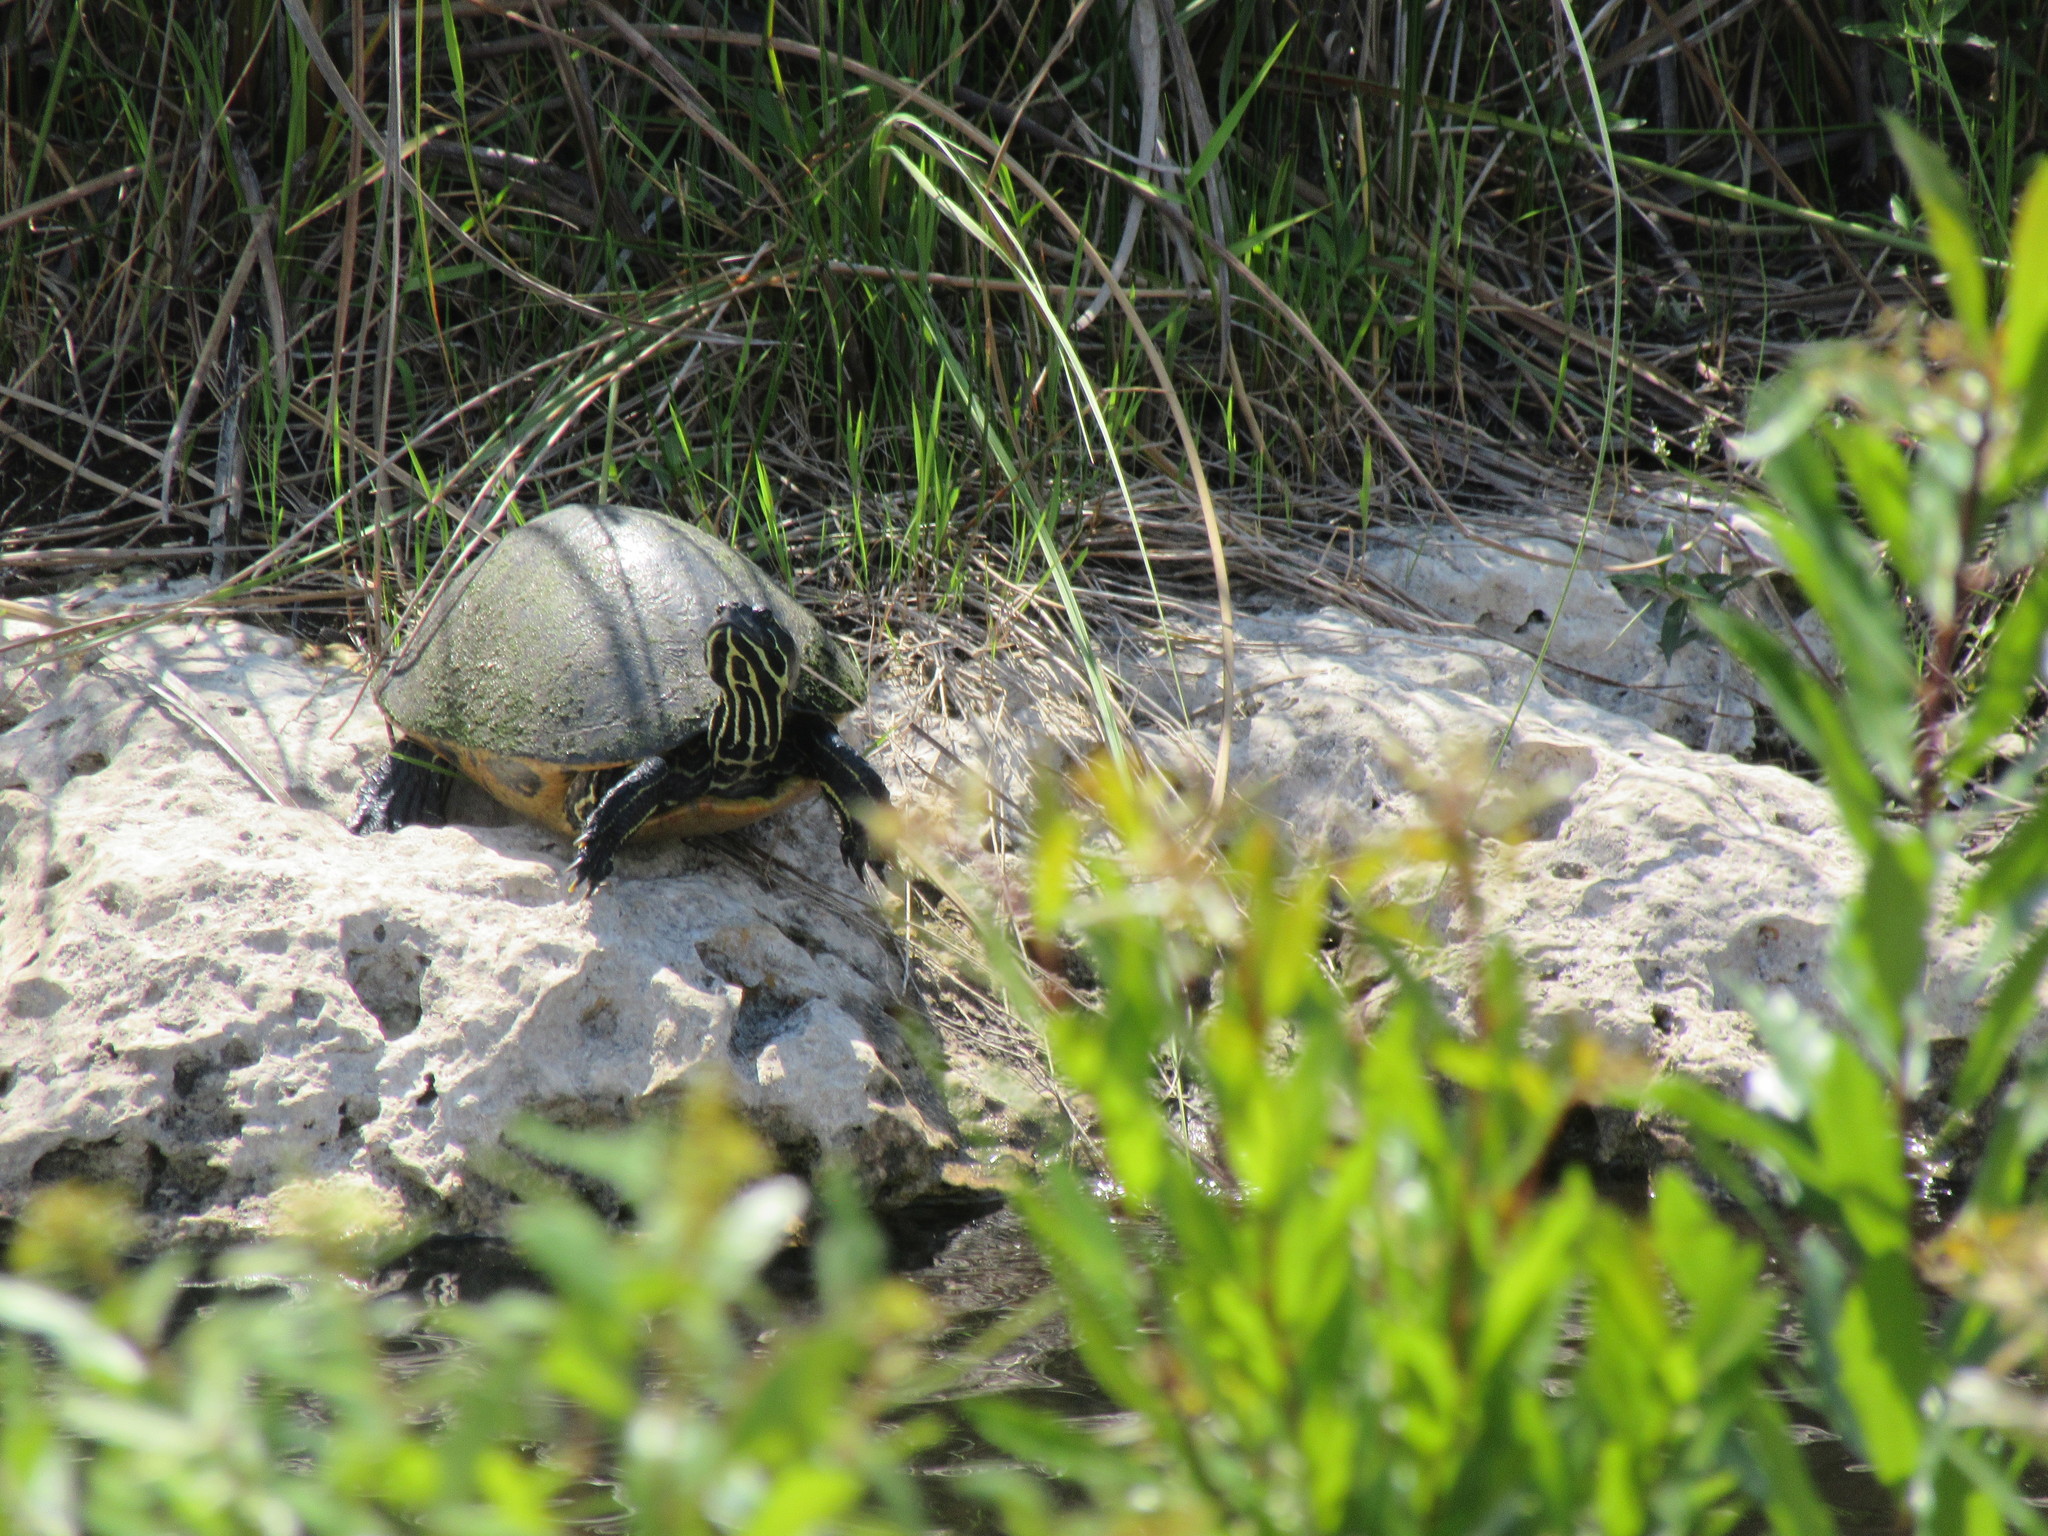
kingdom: Animalia
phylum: Chordata
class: Testudines
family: Emydidae
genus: Pseudemys
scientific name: Pseudemys peninsularis
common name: Peninsula cooter
